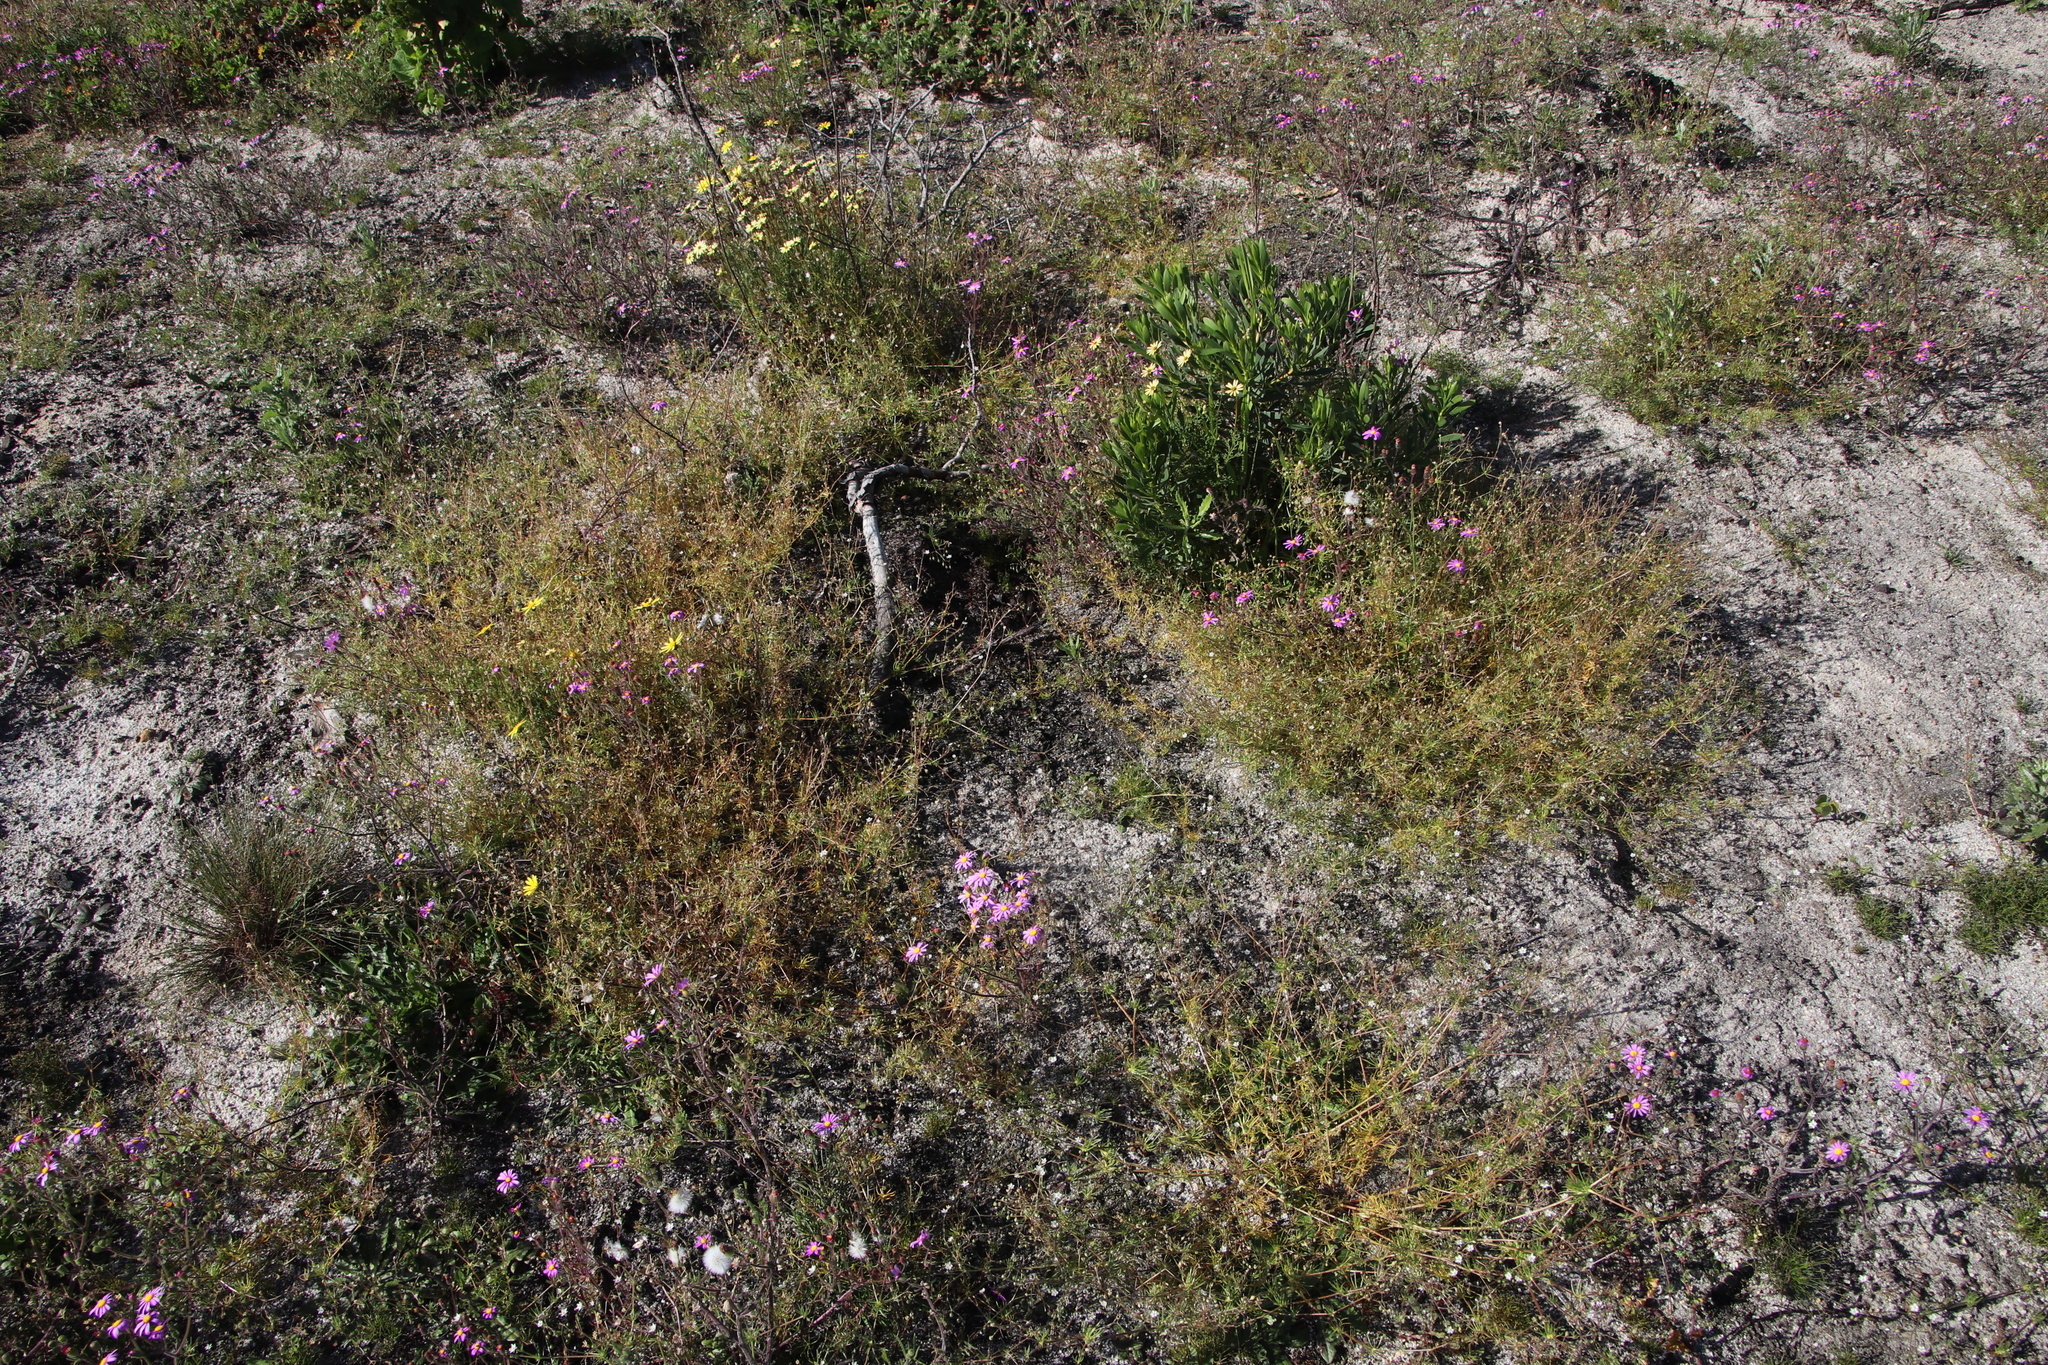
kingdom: Plantae
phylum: Tracheophyta
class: Magnoliopsida
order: Caryophyllales
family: Caryophyllaceae
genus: Spergula
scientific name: Spergula arvensis
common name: Corn spurrey
